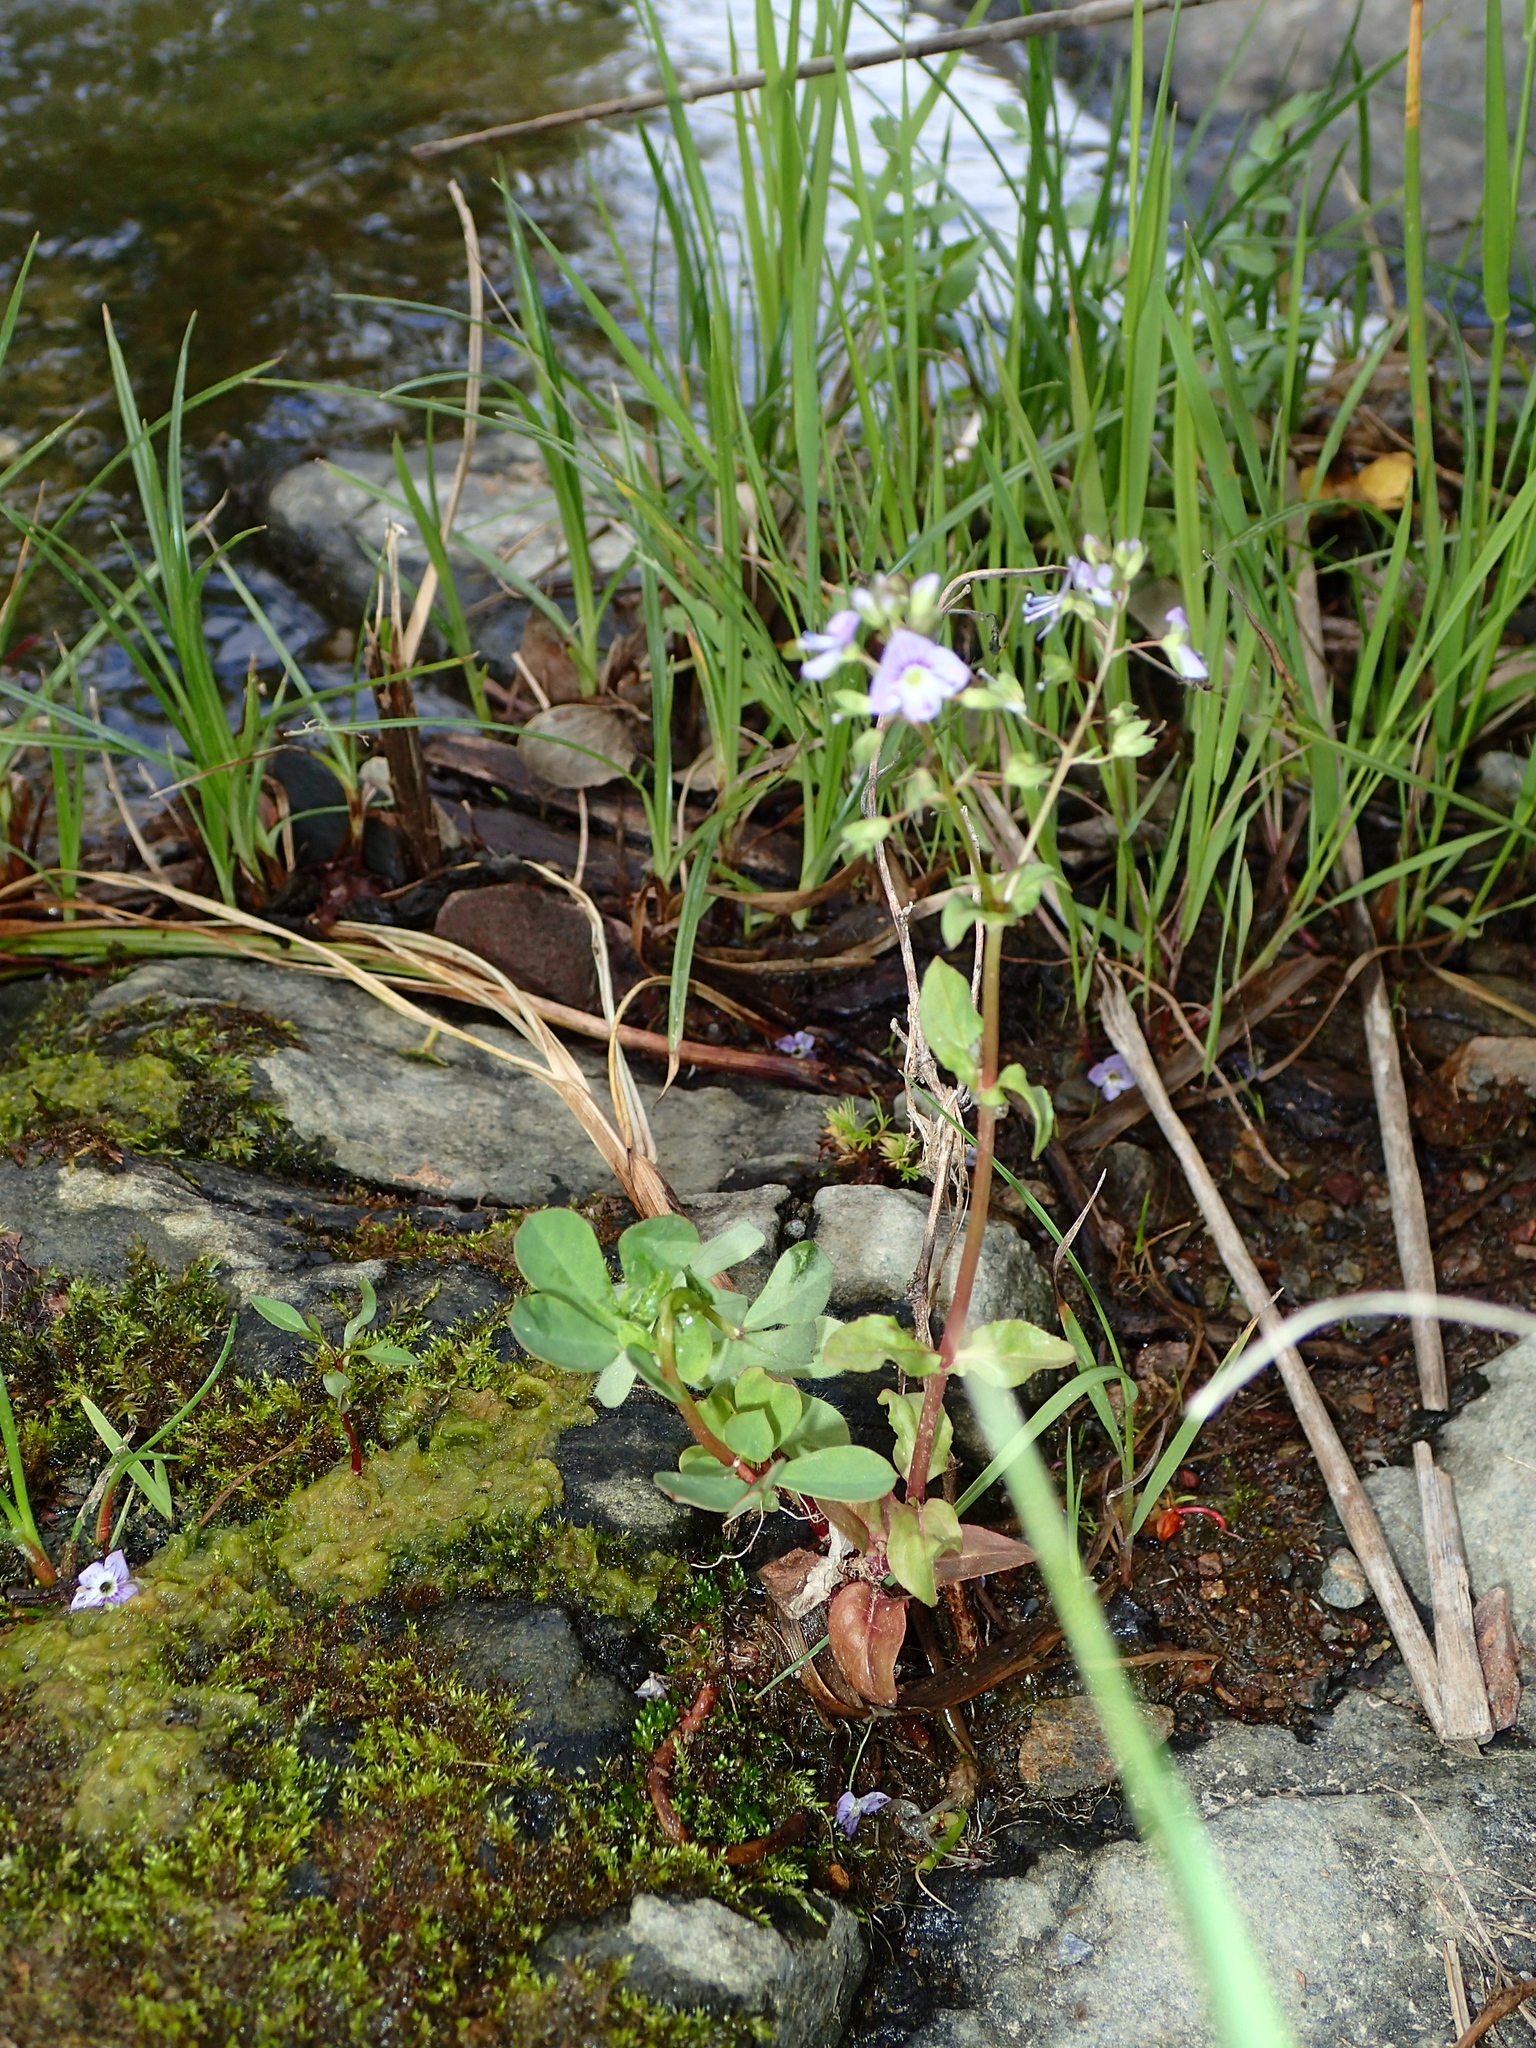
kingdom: Plantae
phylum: Tracheophyta
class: Magnoliopsida
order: Lamiales
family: Plantaginaceae
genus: Veronica
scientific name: Veronica anagallis-aquatica
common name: Water speedwell
